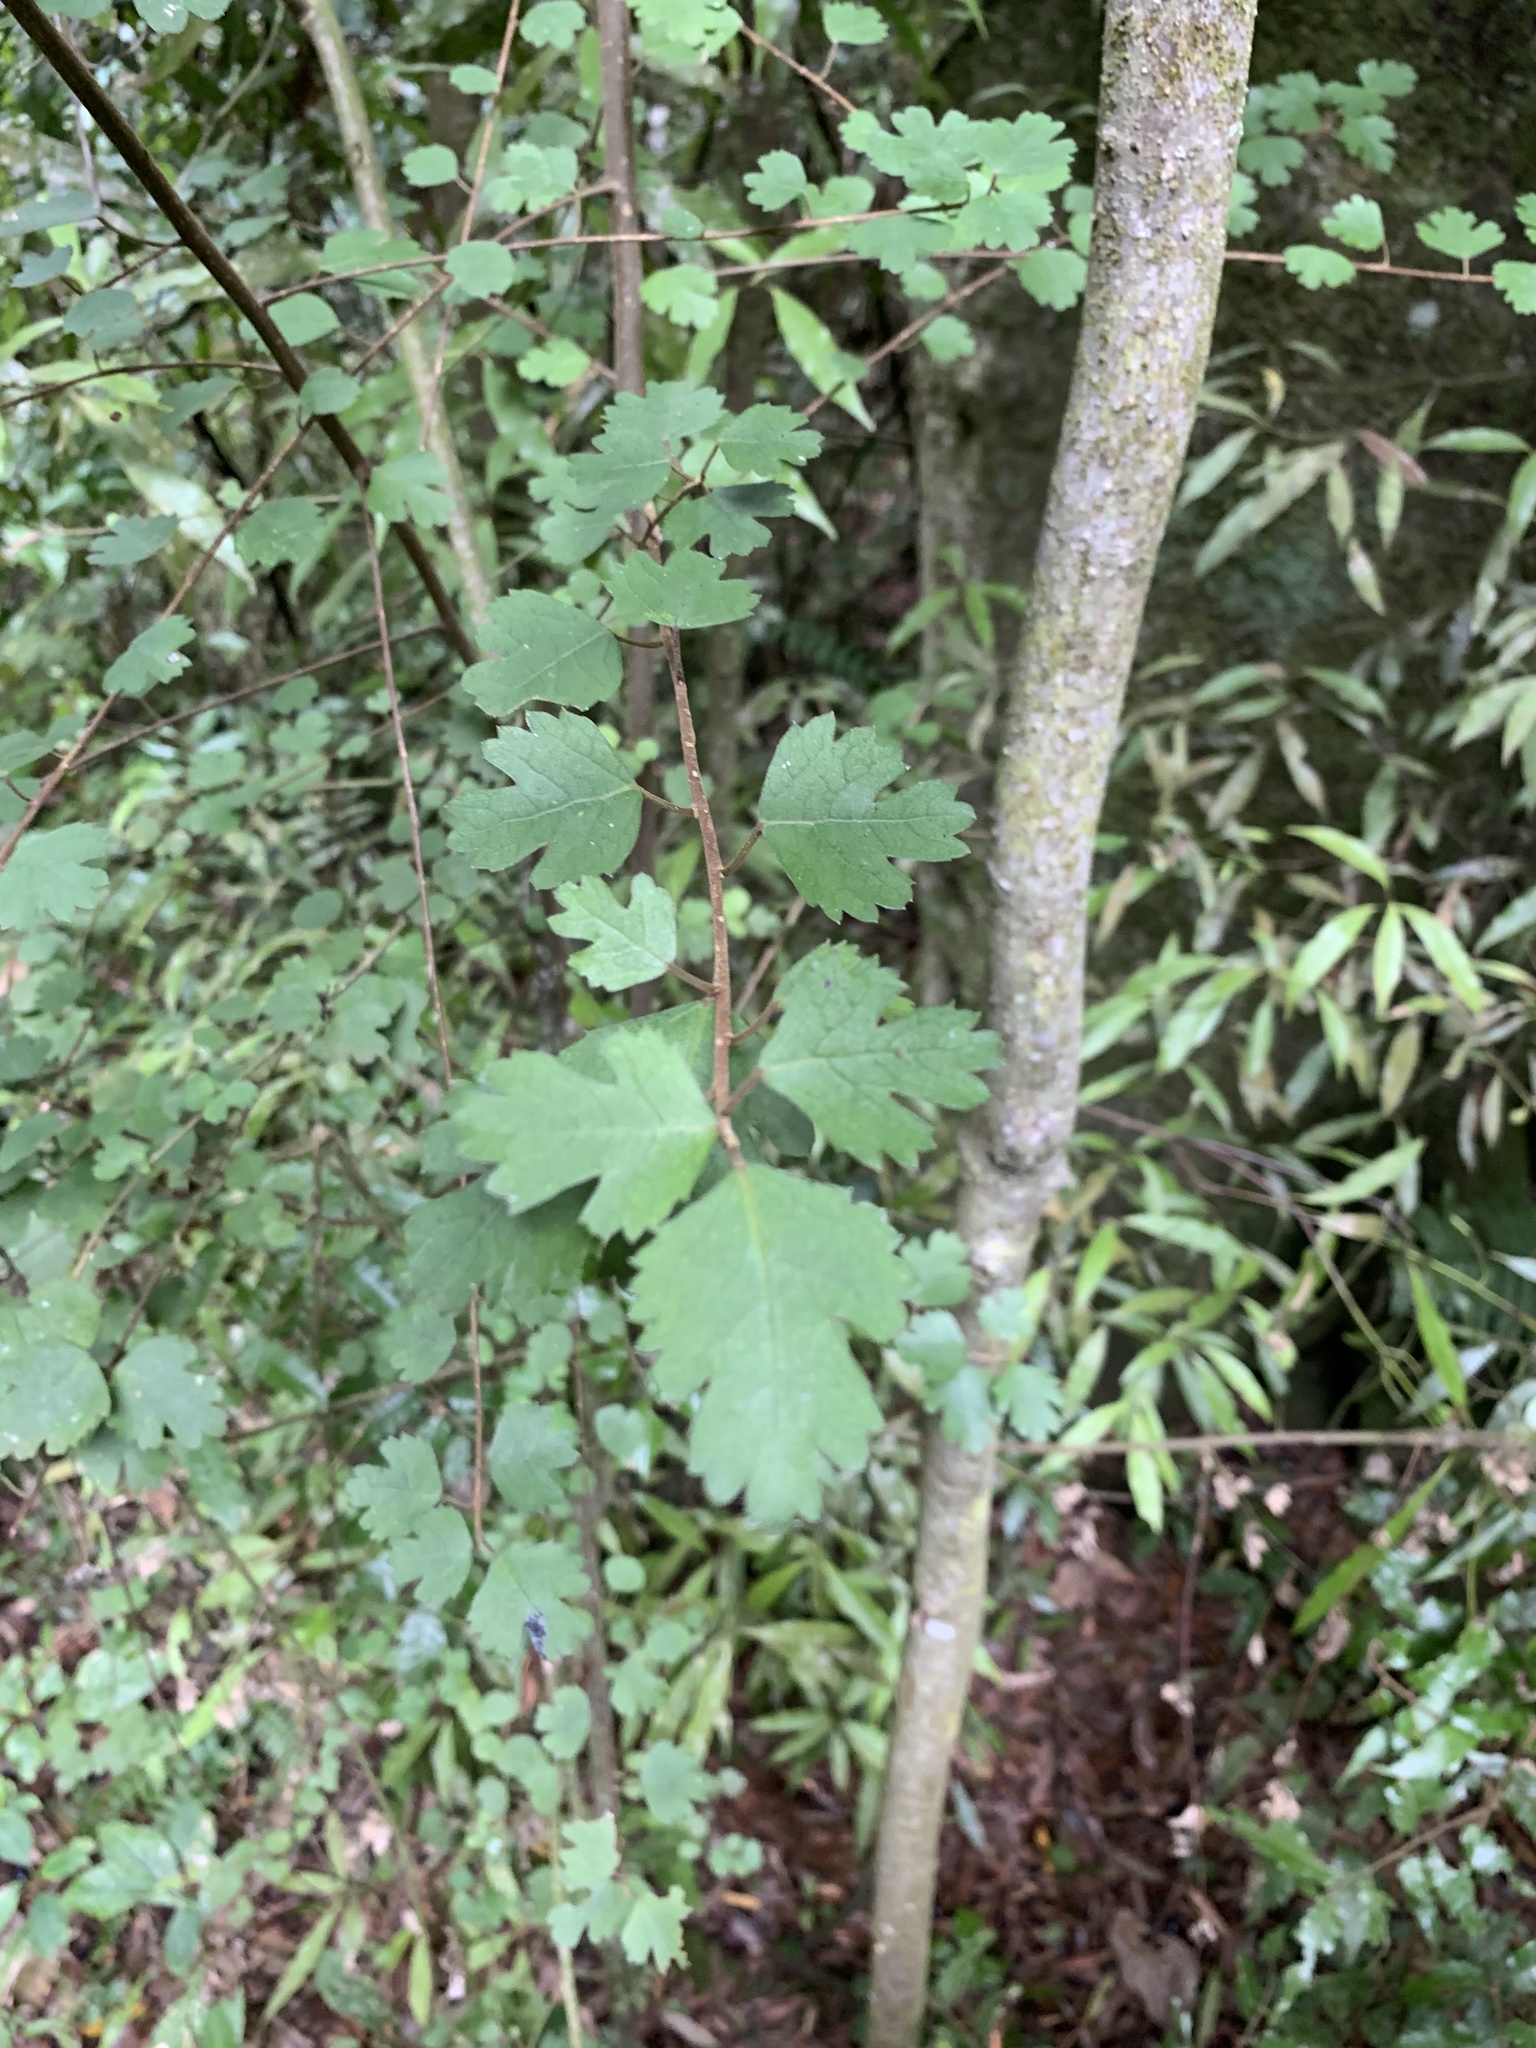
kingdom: Plantae
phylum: Tracheophyta
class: Magnoliopsida
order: Malvales
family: Malvaceae
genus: Hoheria
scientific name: Hoheria sexstylosa
